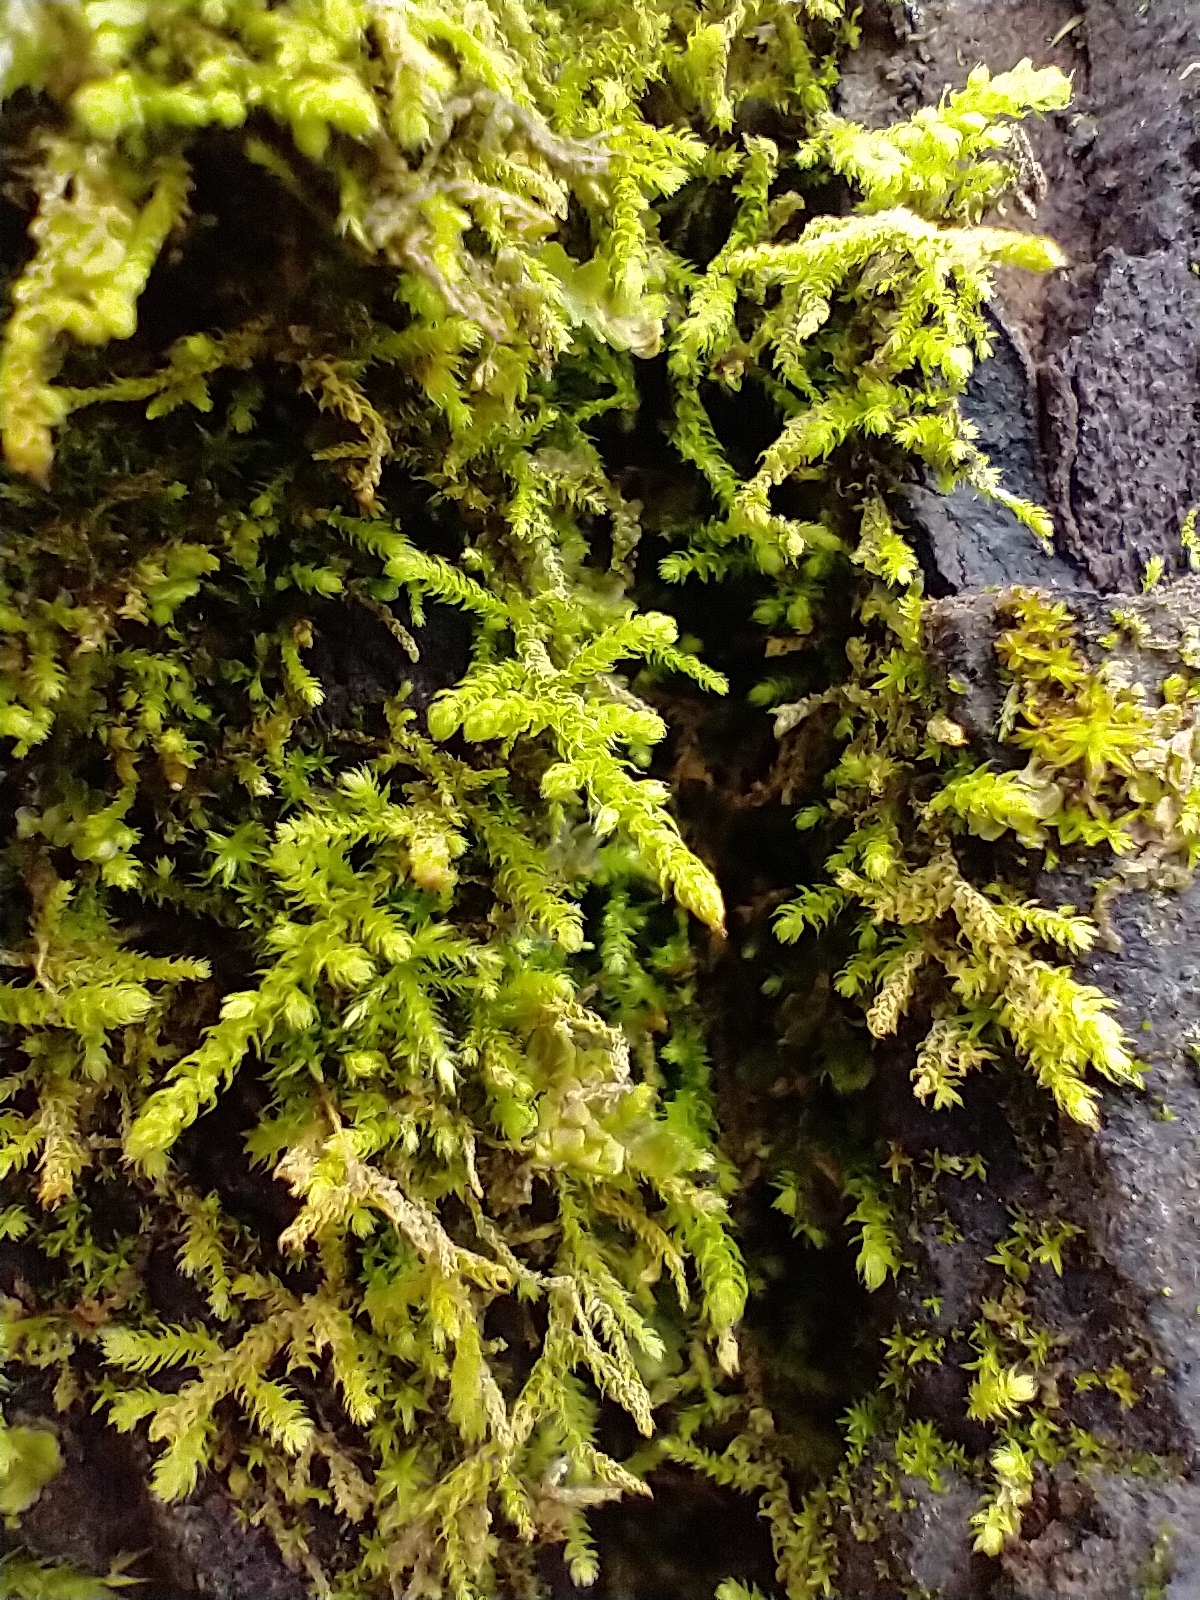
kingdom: Plantae
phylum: Bryophyta
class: Bryopsida
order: Hypnales
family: Brachytheciaceae
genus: Claopodium
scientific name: Claopodium crispifolium
